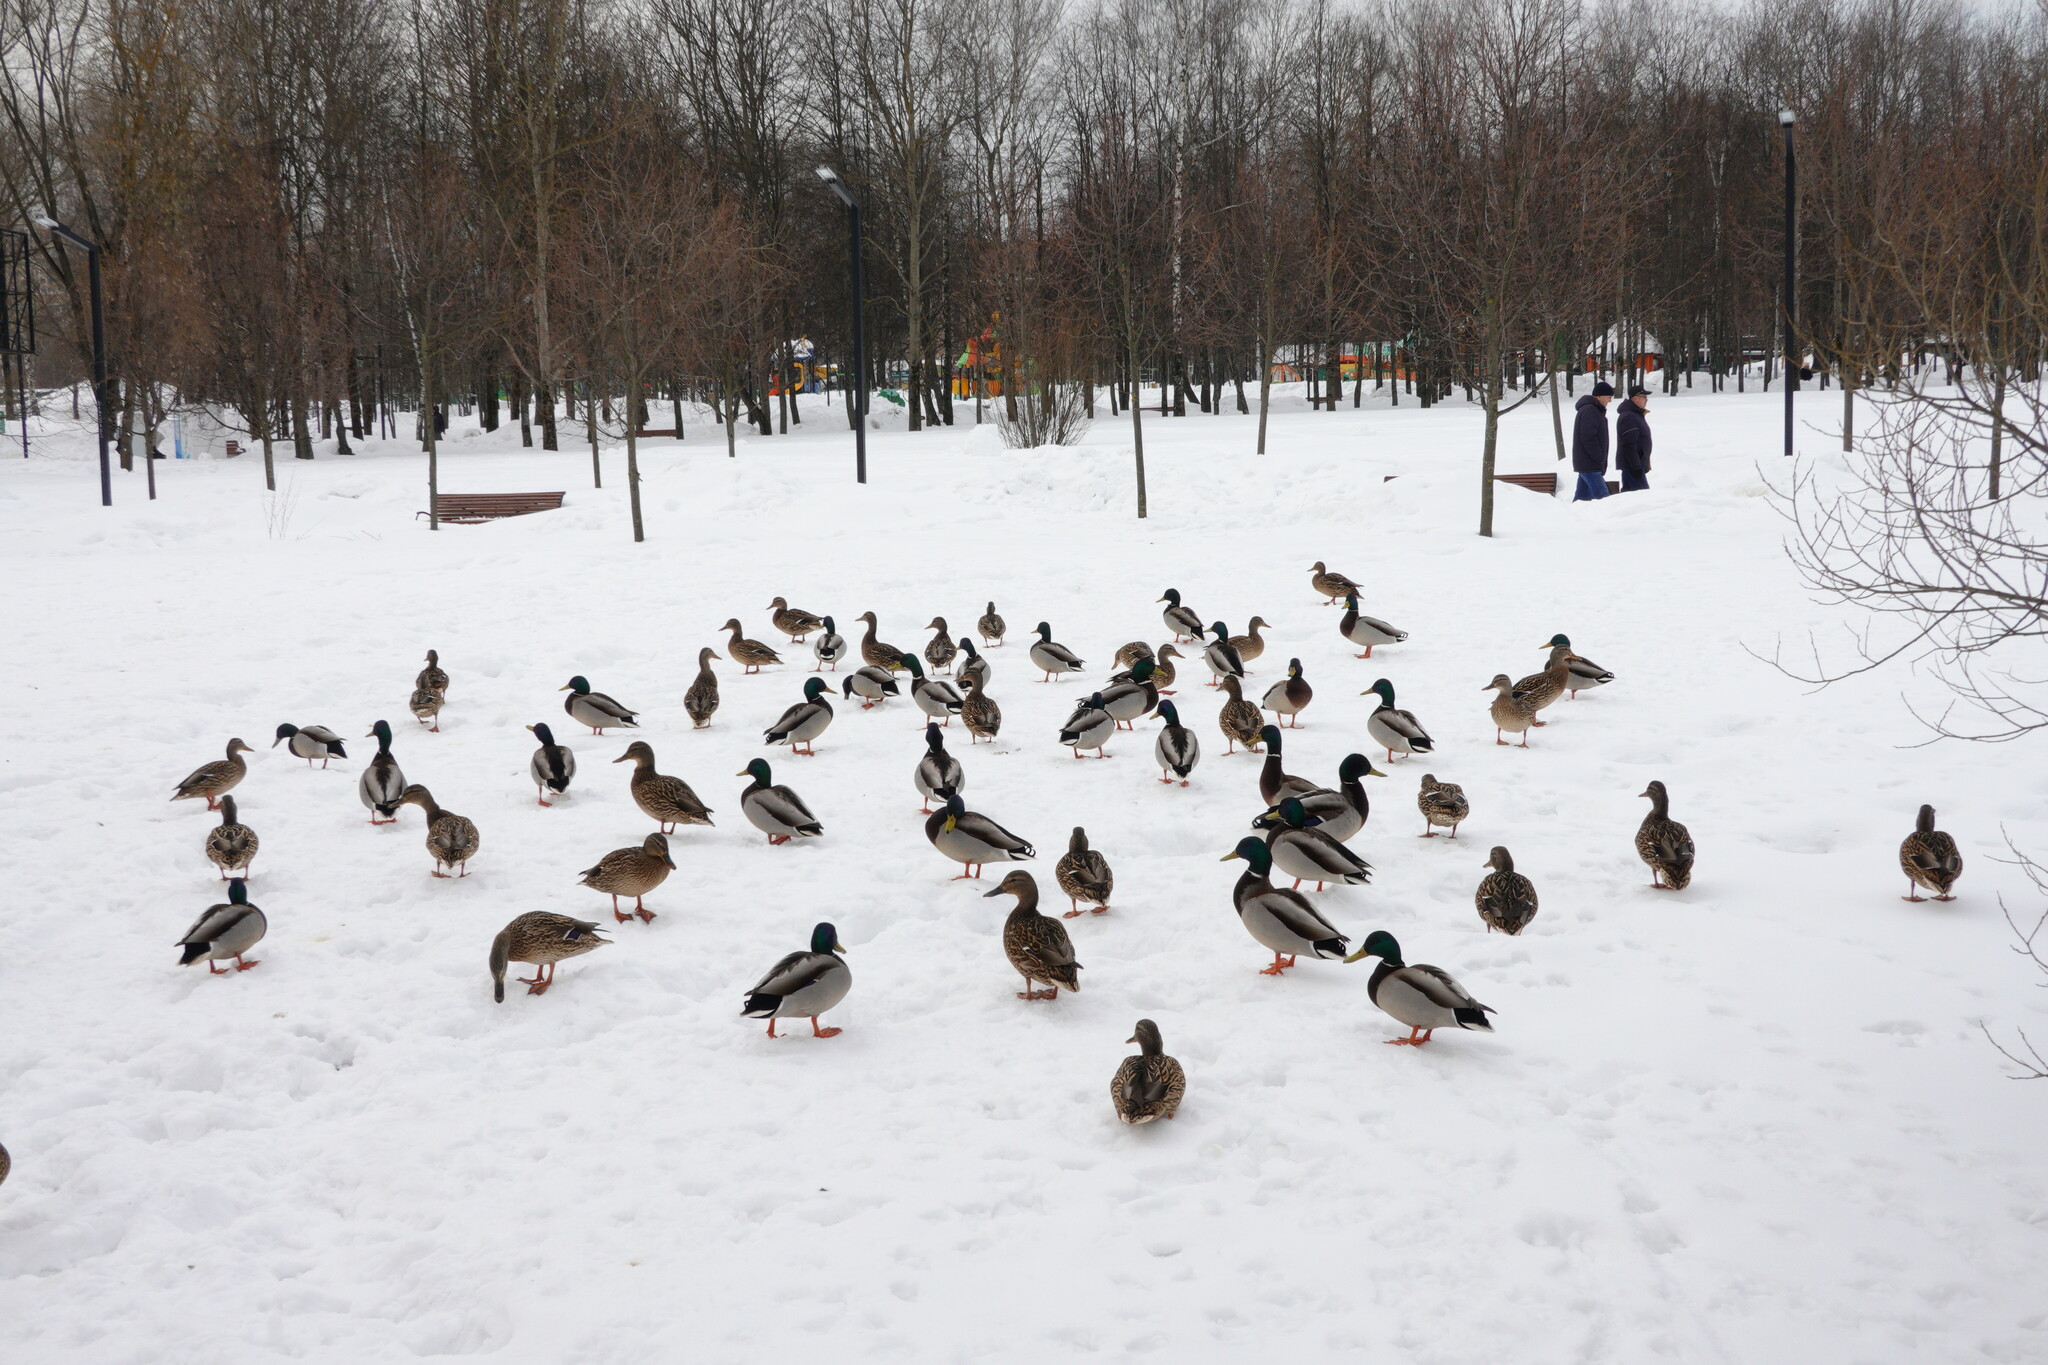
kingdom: Animalia
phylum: Chordata
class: Aves
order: Anseriformes
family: Anatidae
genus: Anas
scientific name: Anas platyrhynchos
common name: Mallard
